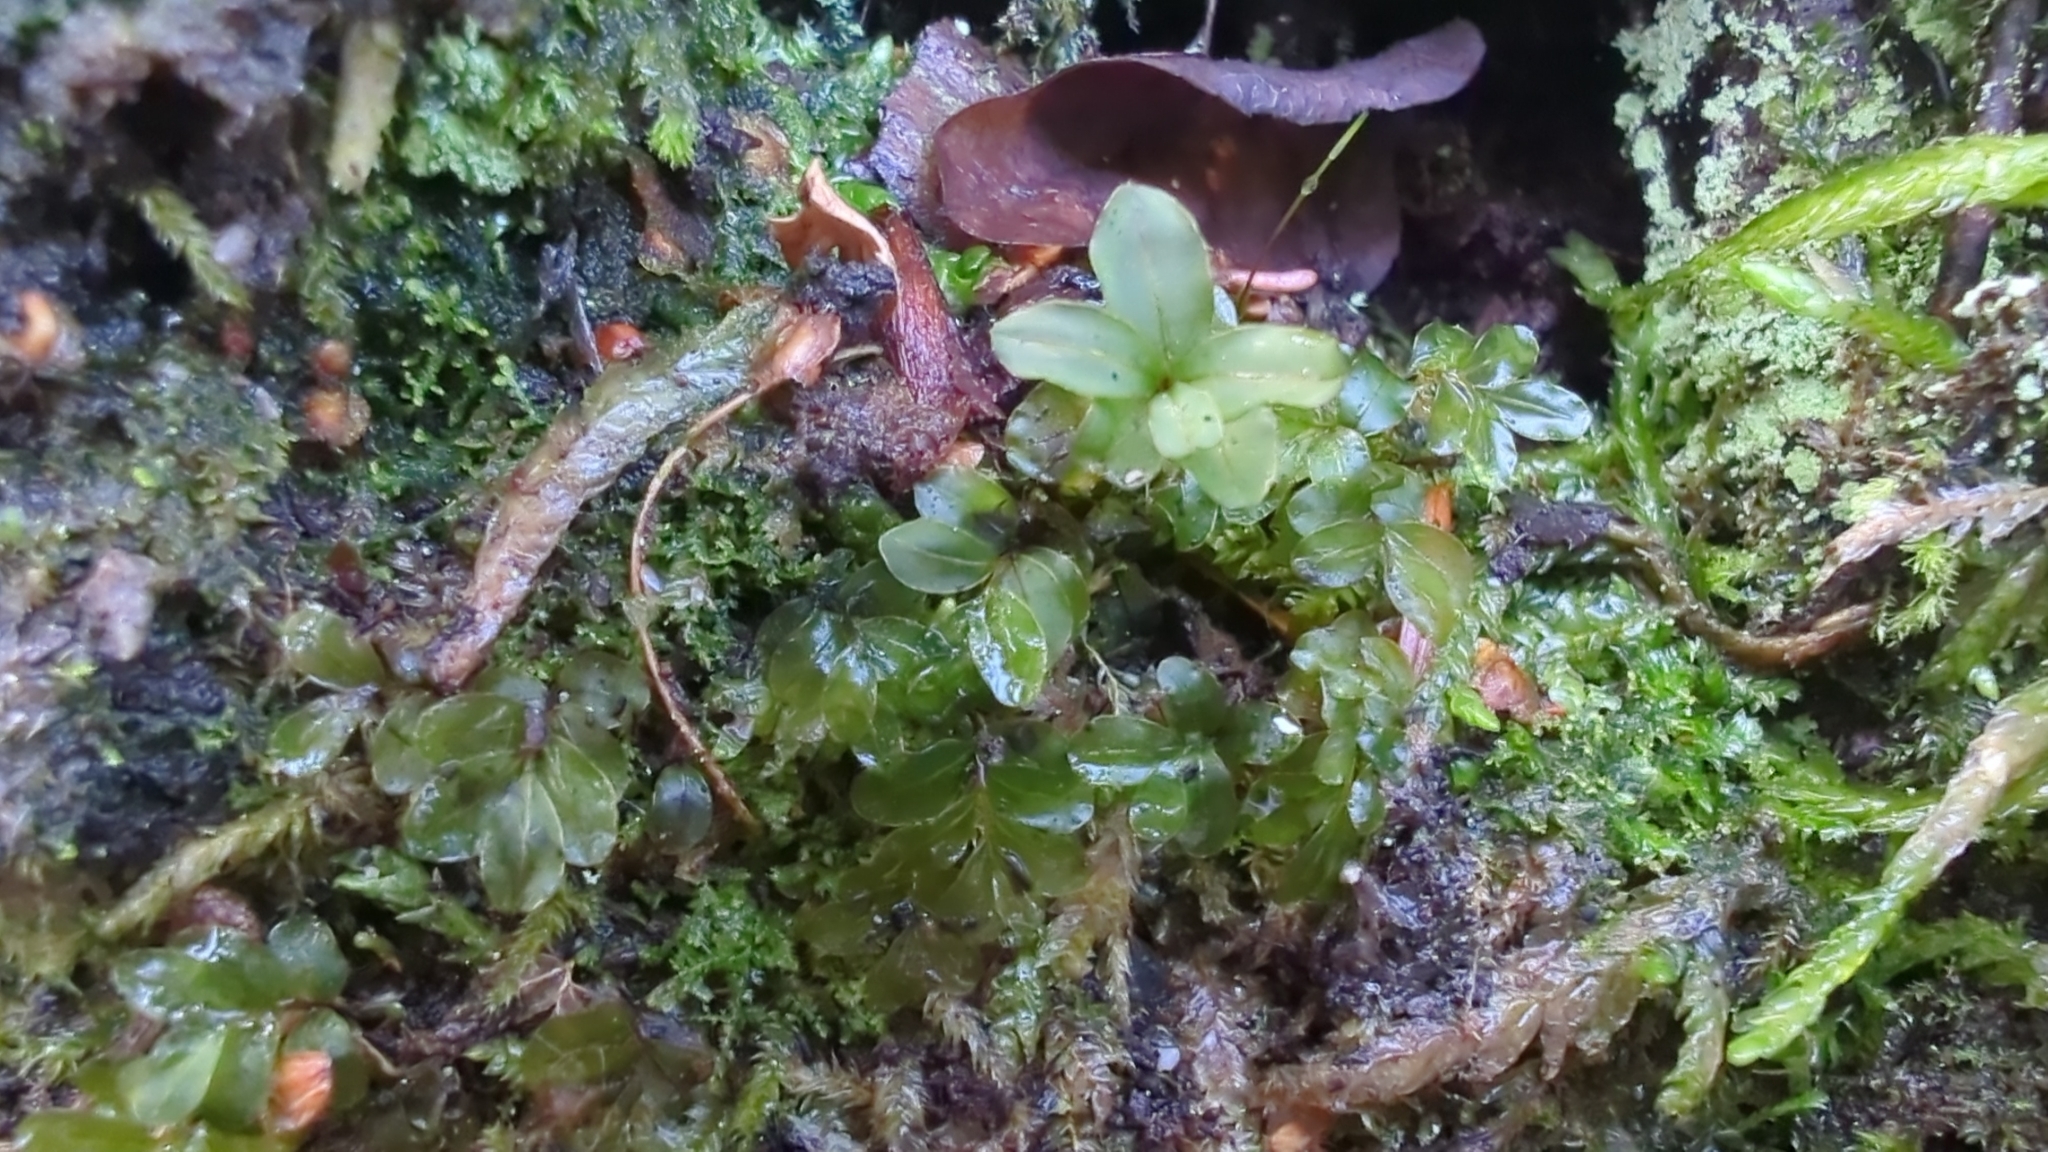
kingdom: Plantae
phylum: Bryophyta
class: Bryopsida
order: Bryales
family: Mniaceae
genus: Rhizomnium
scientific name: Rhizomnium glabrescens
